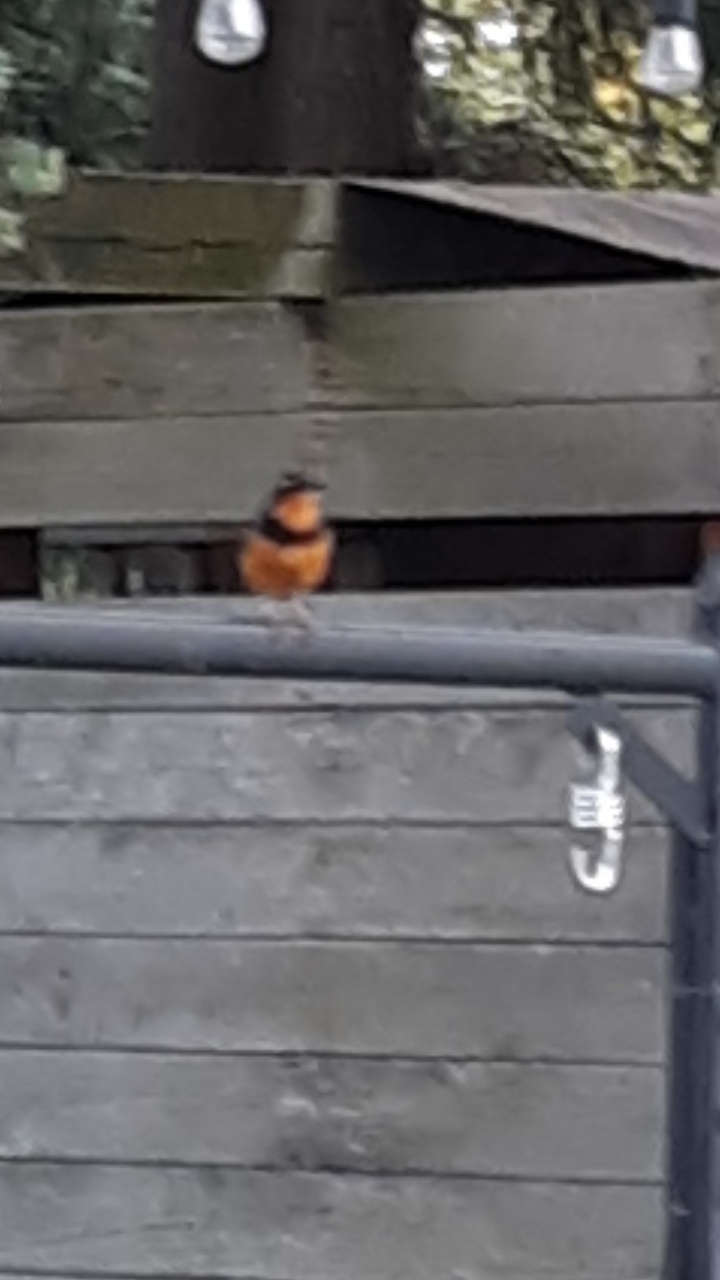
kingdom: Animalia
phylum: Chordata
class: Aves
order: Passeriformes
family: Turdidae
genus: Ixoreus
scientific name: Ixoreus naevius
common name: Varied thrush
